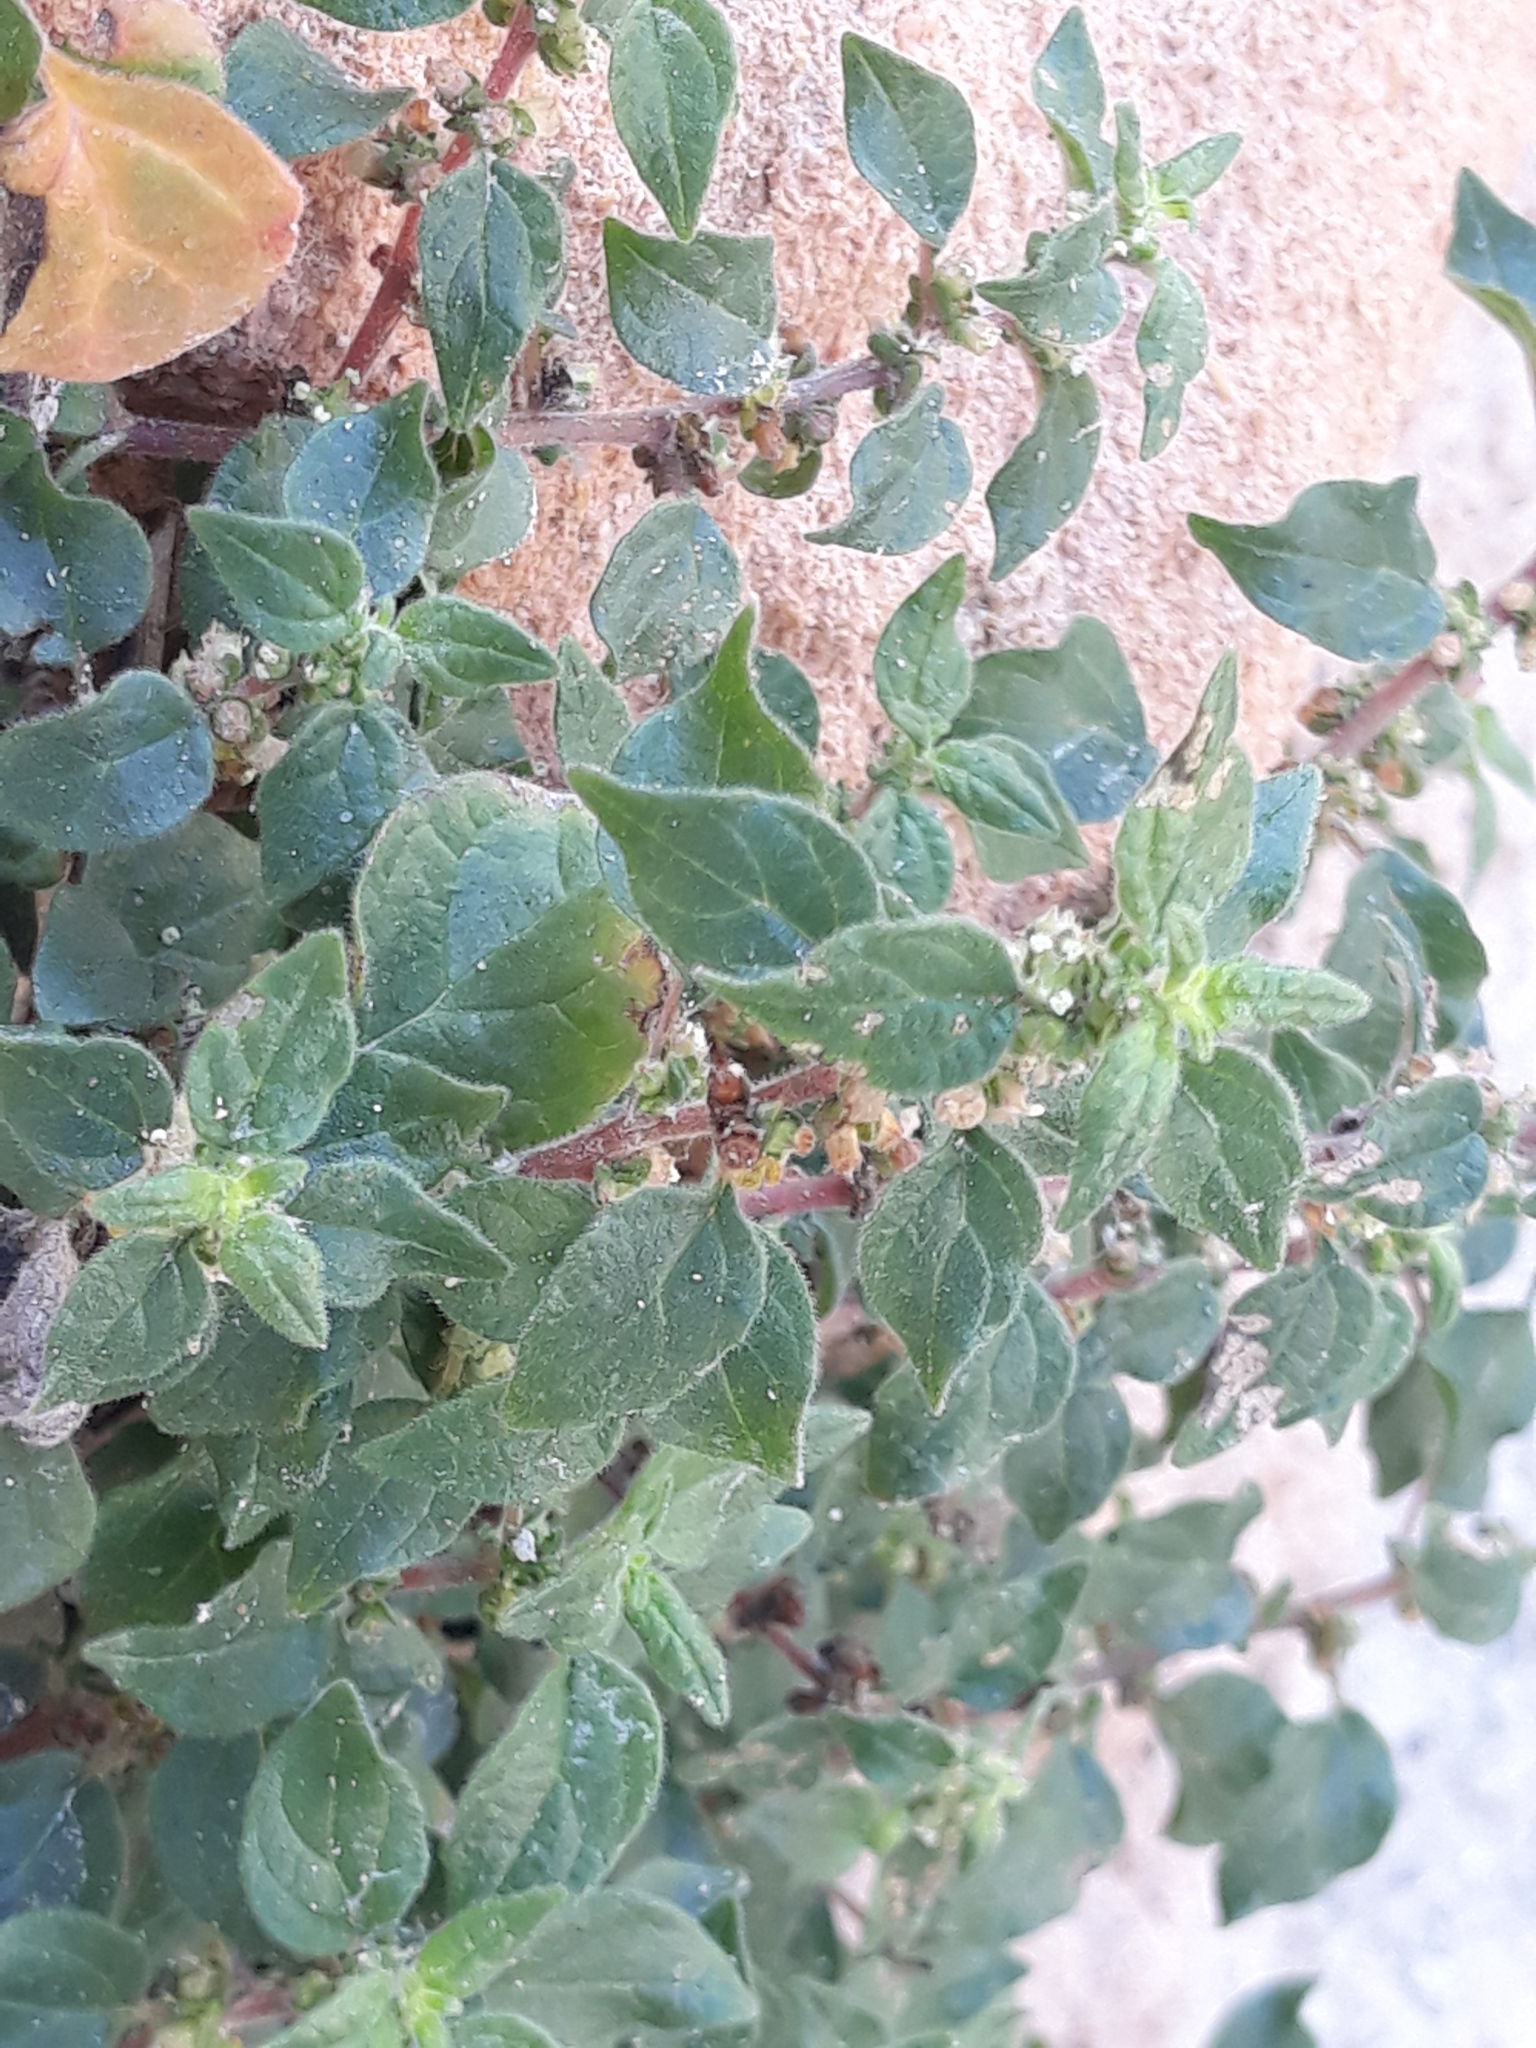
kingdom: Plantae
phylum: Tracheophyta
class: Magnoliopsida
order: Rosales
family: Urticaceae
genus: Parietaria
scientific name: Parietaria judaica
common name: Pellitory-of-the-wall
